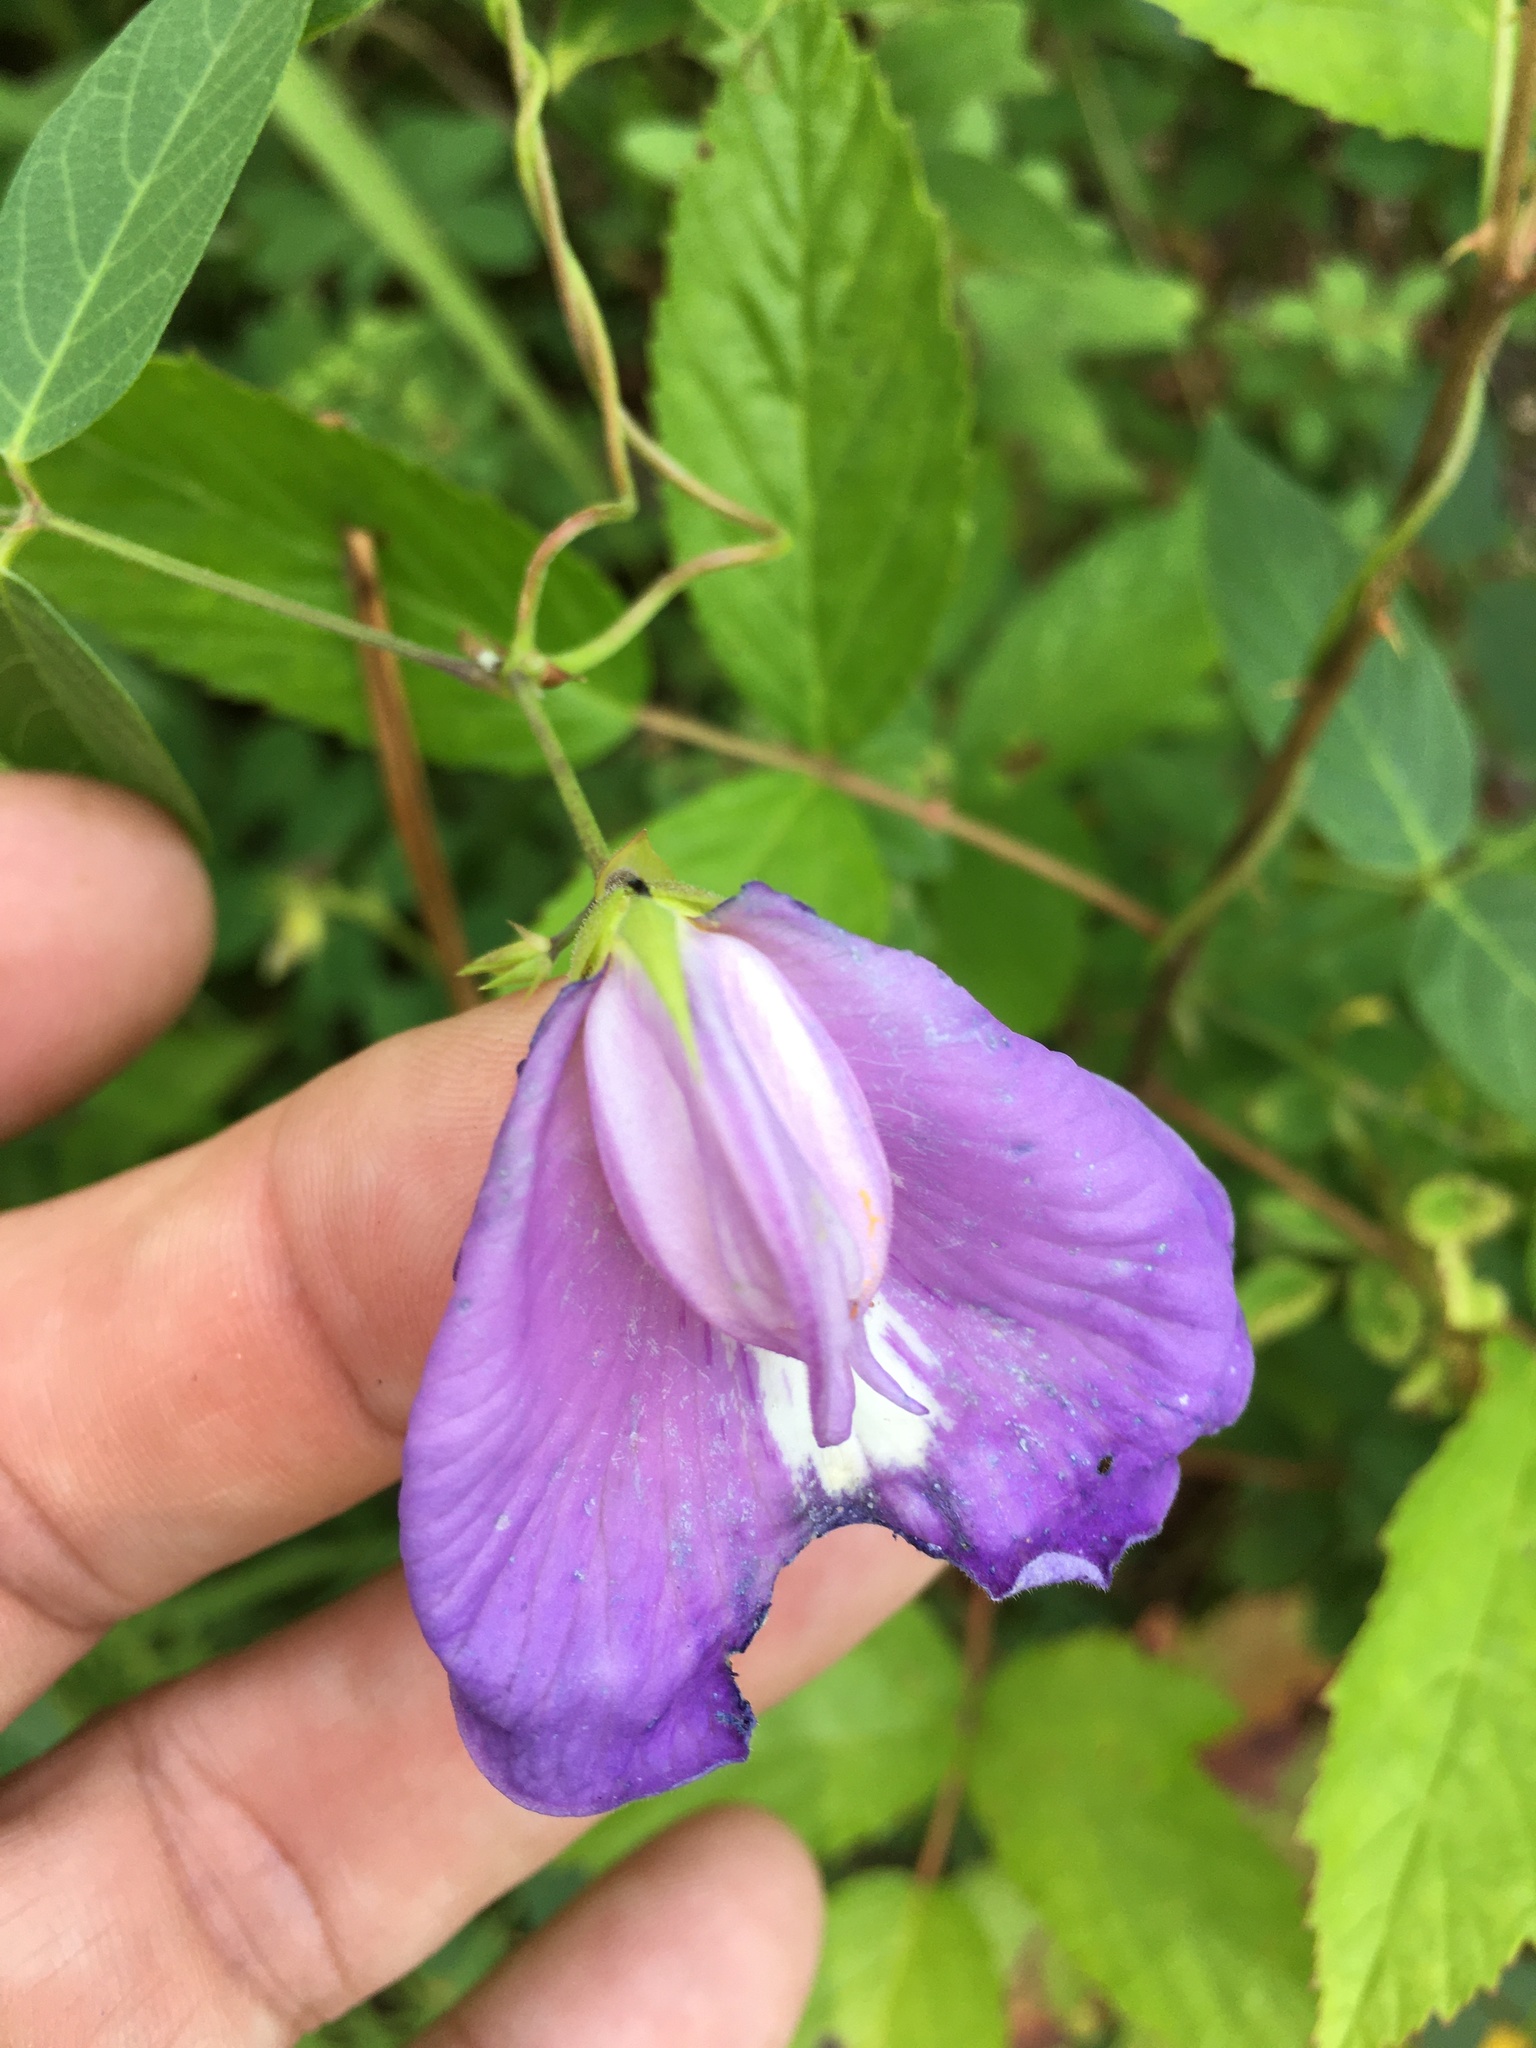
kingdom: Plantae
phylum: Tracheophyta
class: Magnoliopsida
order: Fabales
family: Fabaceae
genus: Centrosema
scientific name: Centrosema virginianum
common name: Butterfly-pea
